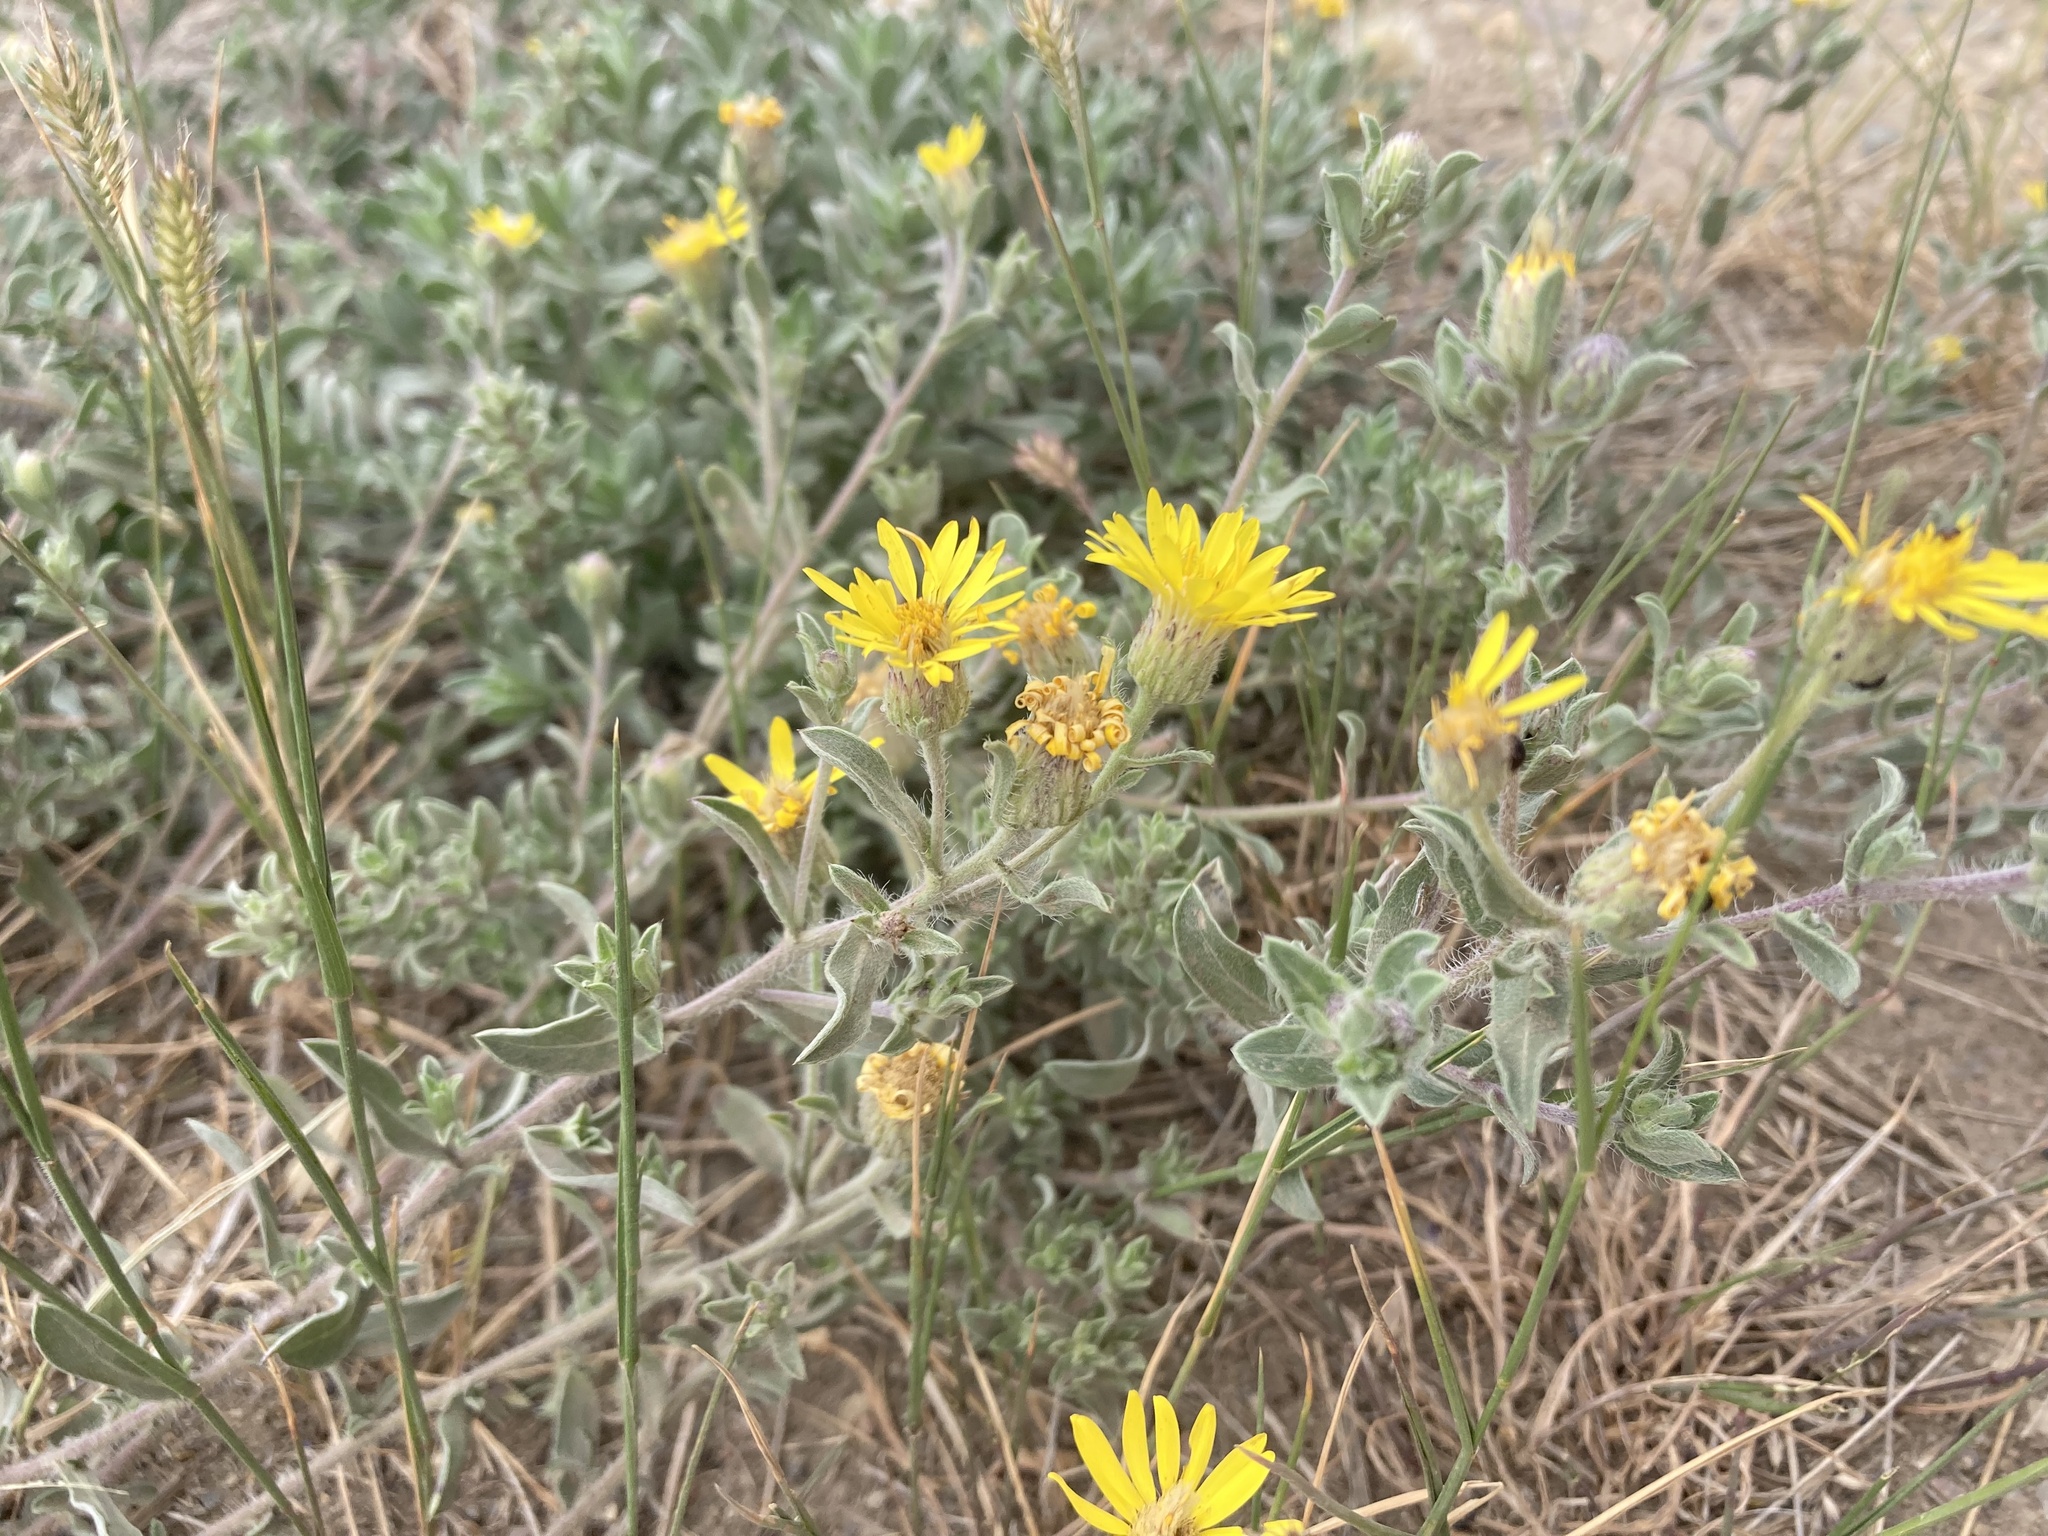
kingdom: Plantae
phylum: Tracheophyta
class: Magnoliopsida
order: Asterales
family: Asteraceae
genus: Heterotheca
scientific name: Heterotheca villosa
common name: Hairy false goldenaster
